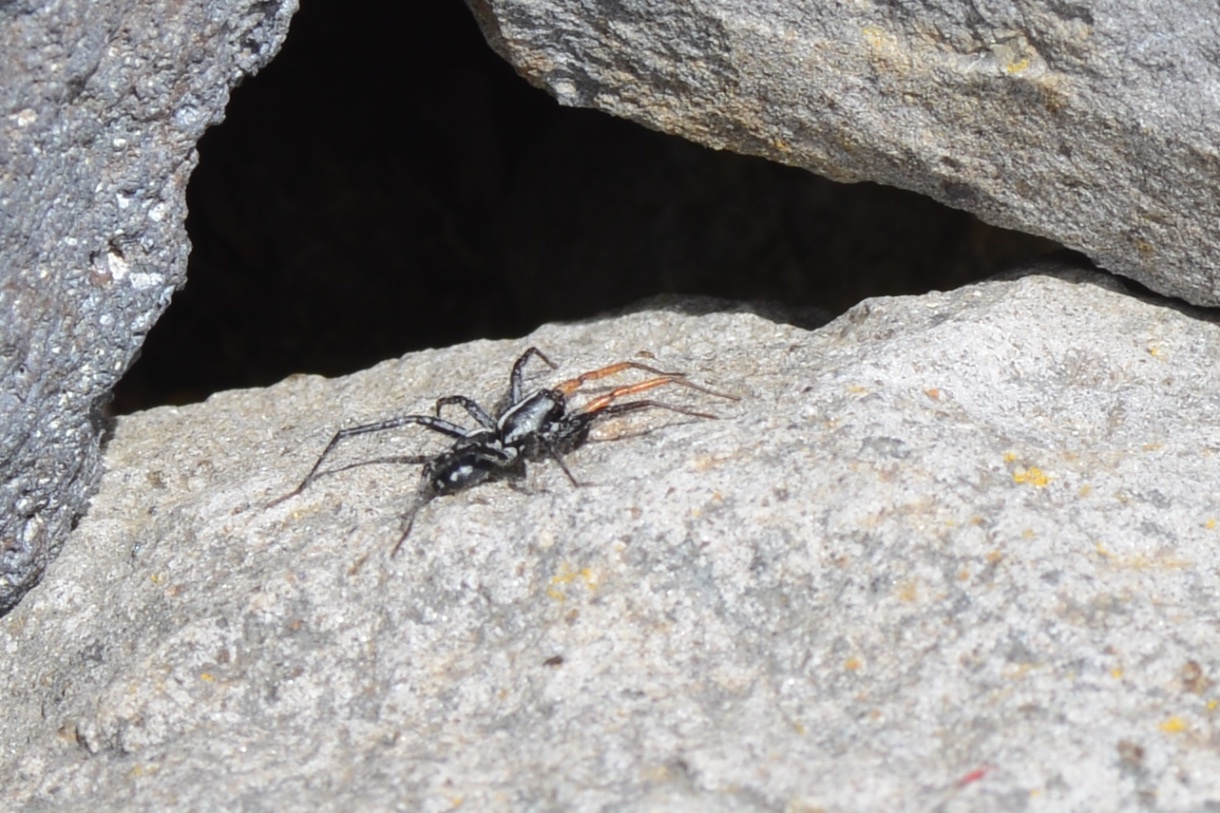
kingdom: Animalia
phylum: Arthropoda
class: Arachnida
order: Araneae
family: Corinnidae
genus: Nyssus
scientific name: Nyssus coloripes
